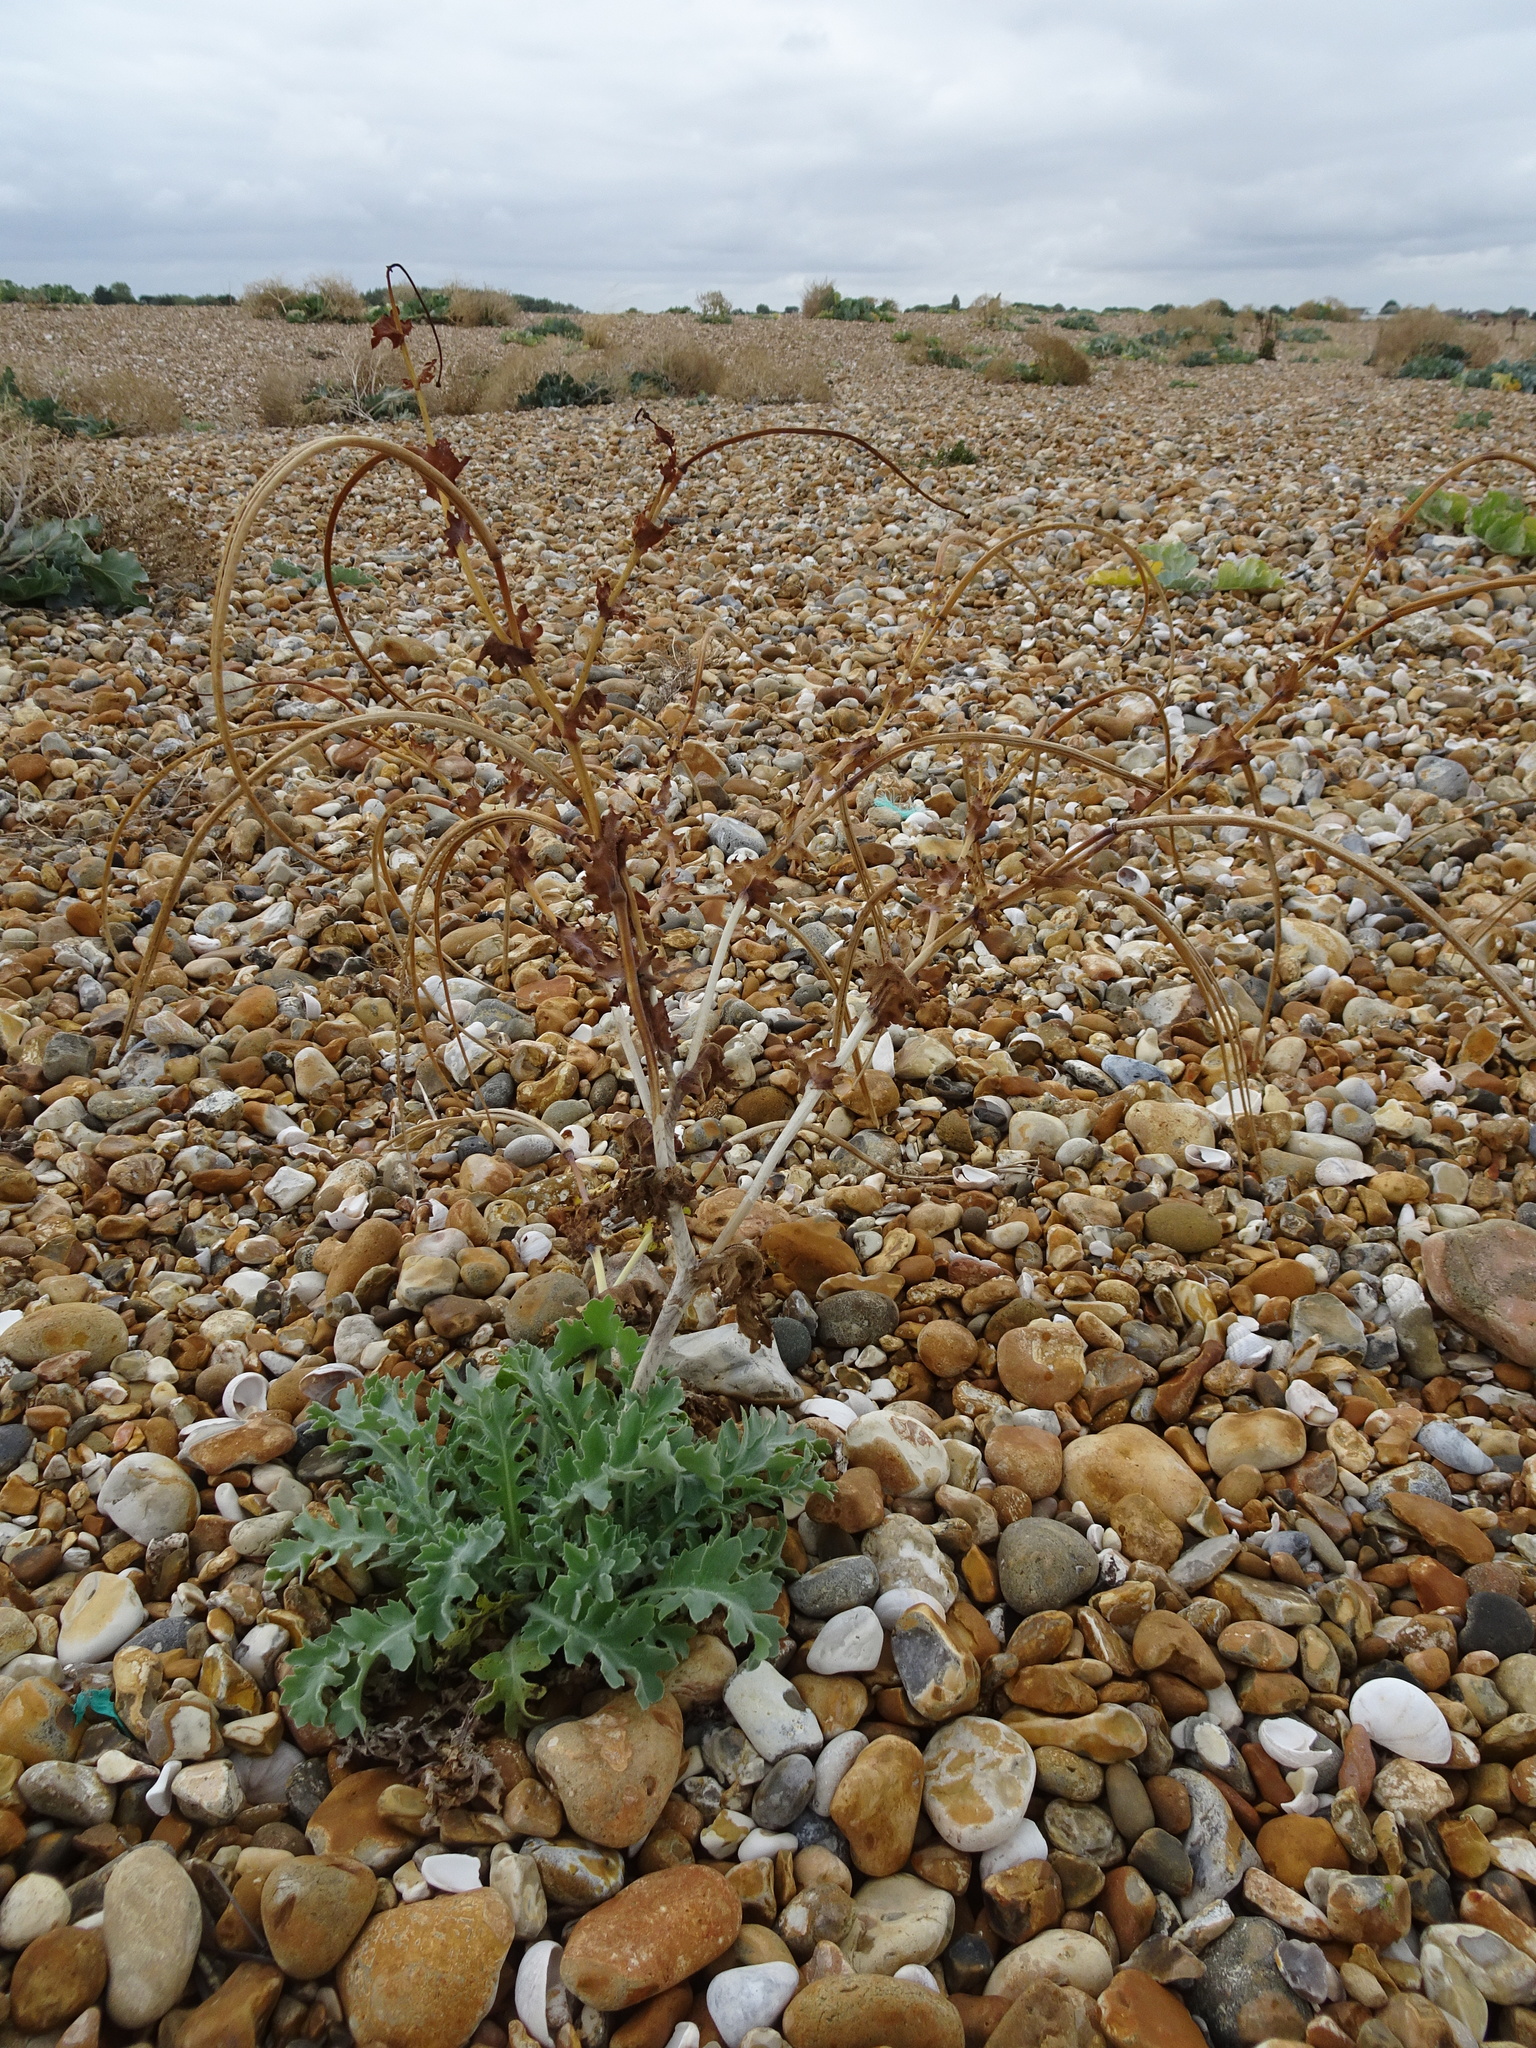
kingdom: Plantae
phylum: Tracheophyta
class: Magnoliopsida
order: Ranunculales
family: Papaveraceae
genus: Glaucium
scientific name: Glaucium flavum
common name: Yellow horned-poppy
